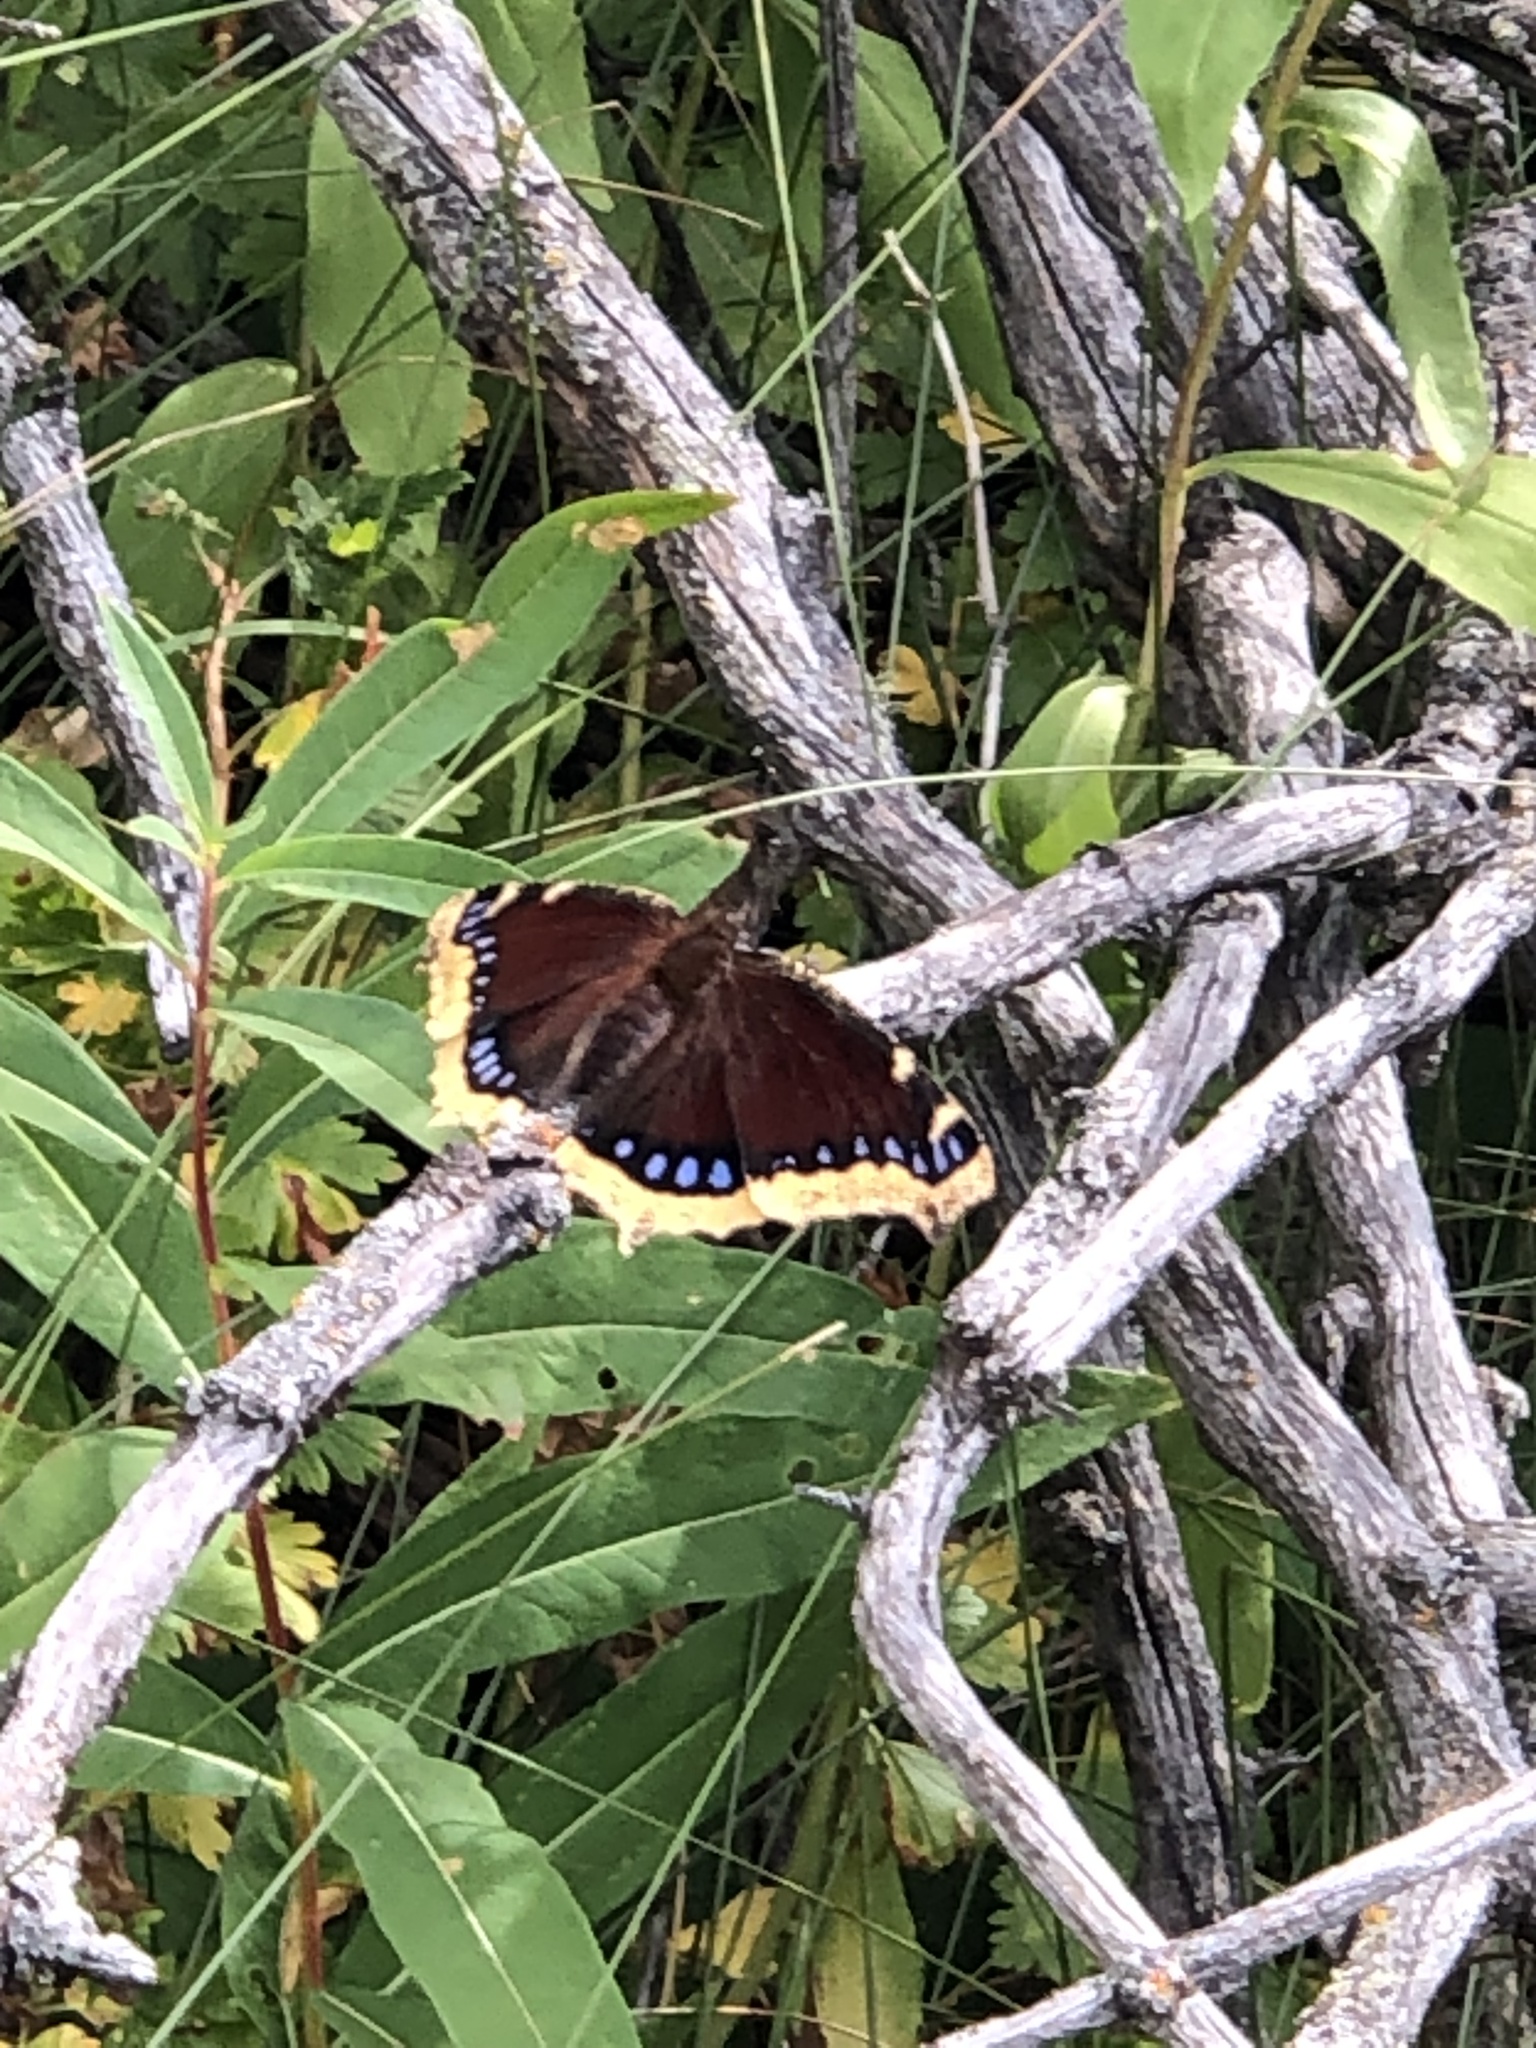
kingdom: Animalia
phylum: Arthropoda
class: Insecta
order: Lepidoptera
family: Nymphalidae
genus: Nymphalis
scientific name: Nymphalis antiopa
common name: Camberwell beauty
